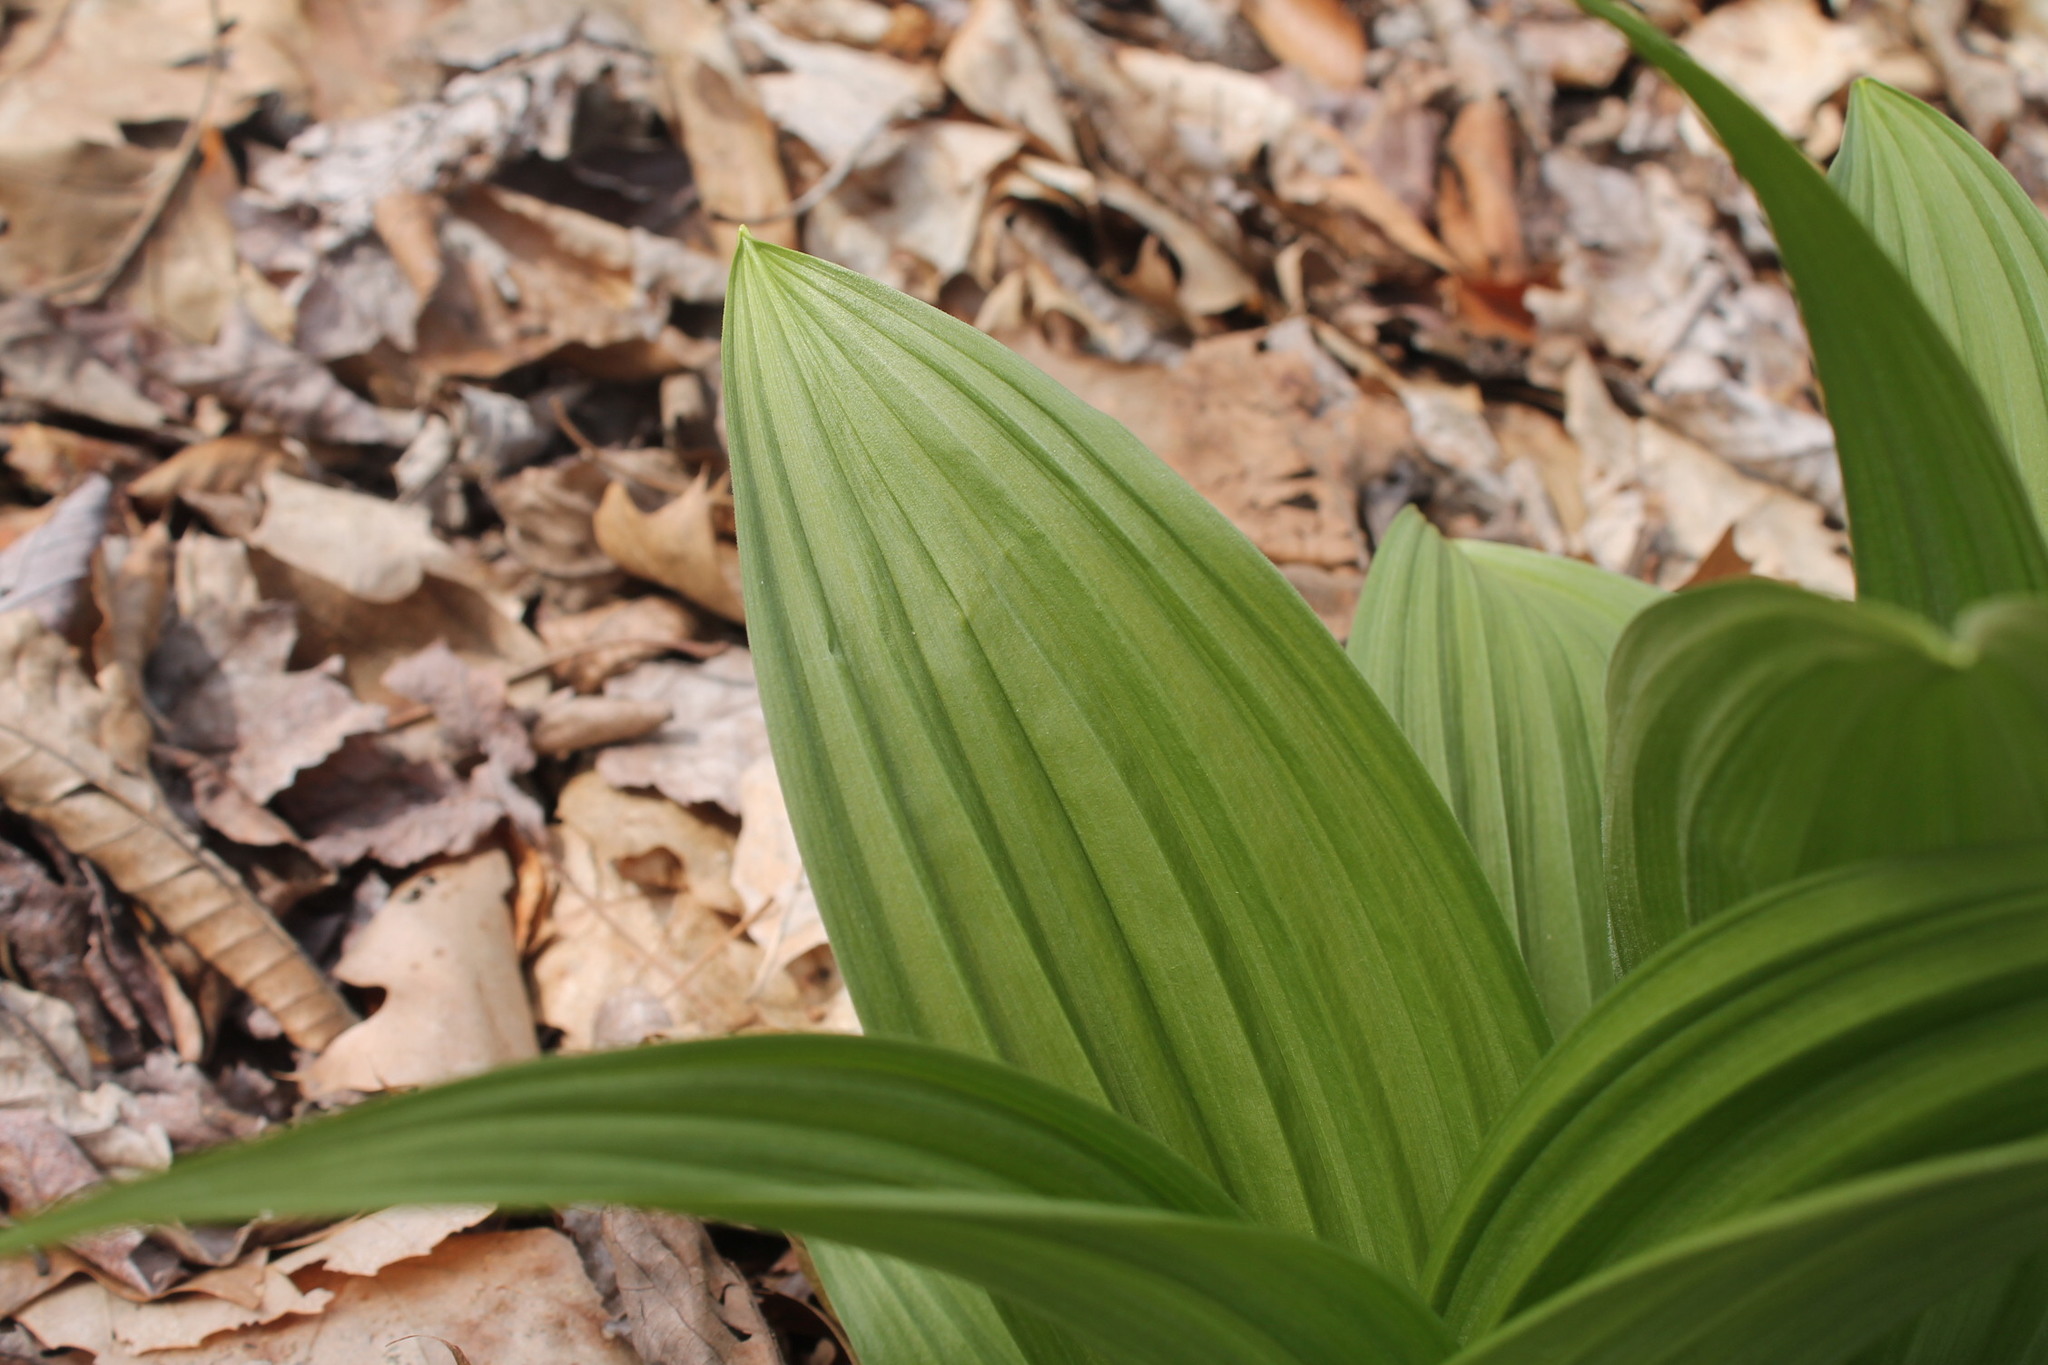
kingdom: Plantae
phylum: Tracheophyta
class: Liliopsida
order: Liliales
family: Melanthiaceae
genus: Veratrum
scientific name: Veratrum viride
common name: American false hellebore
